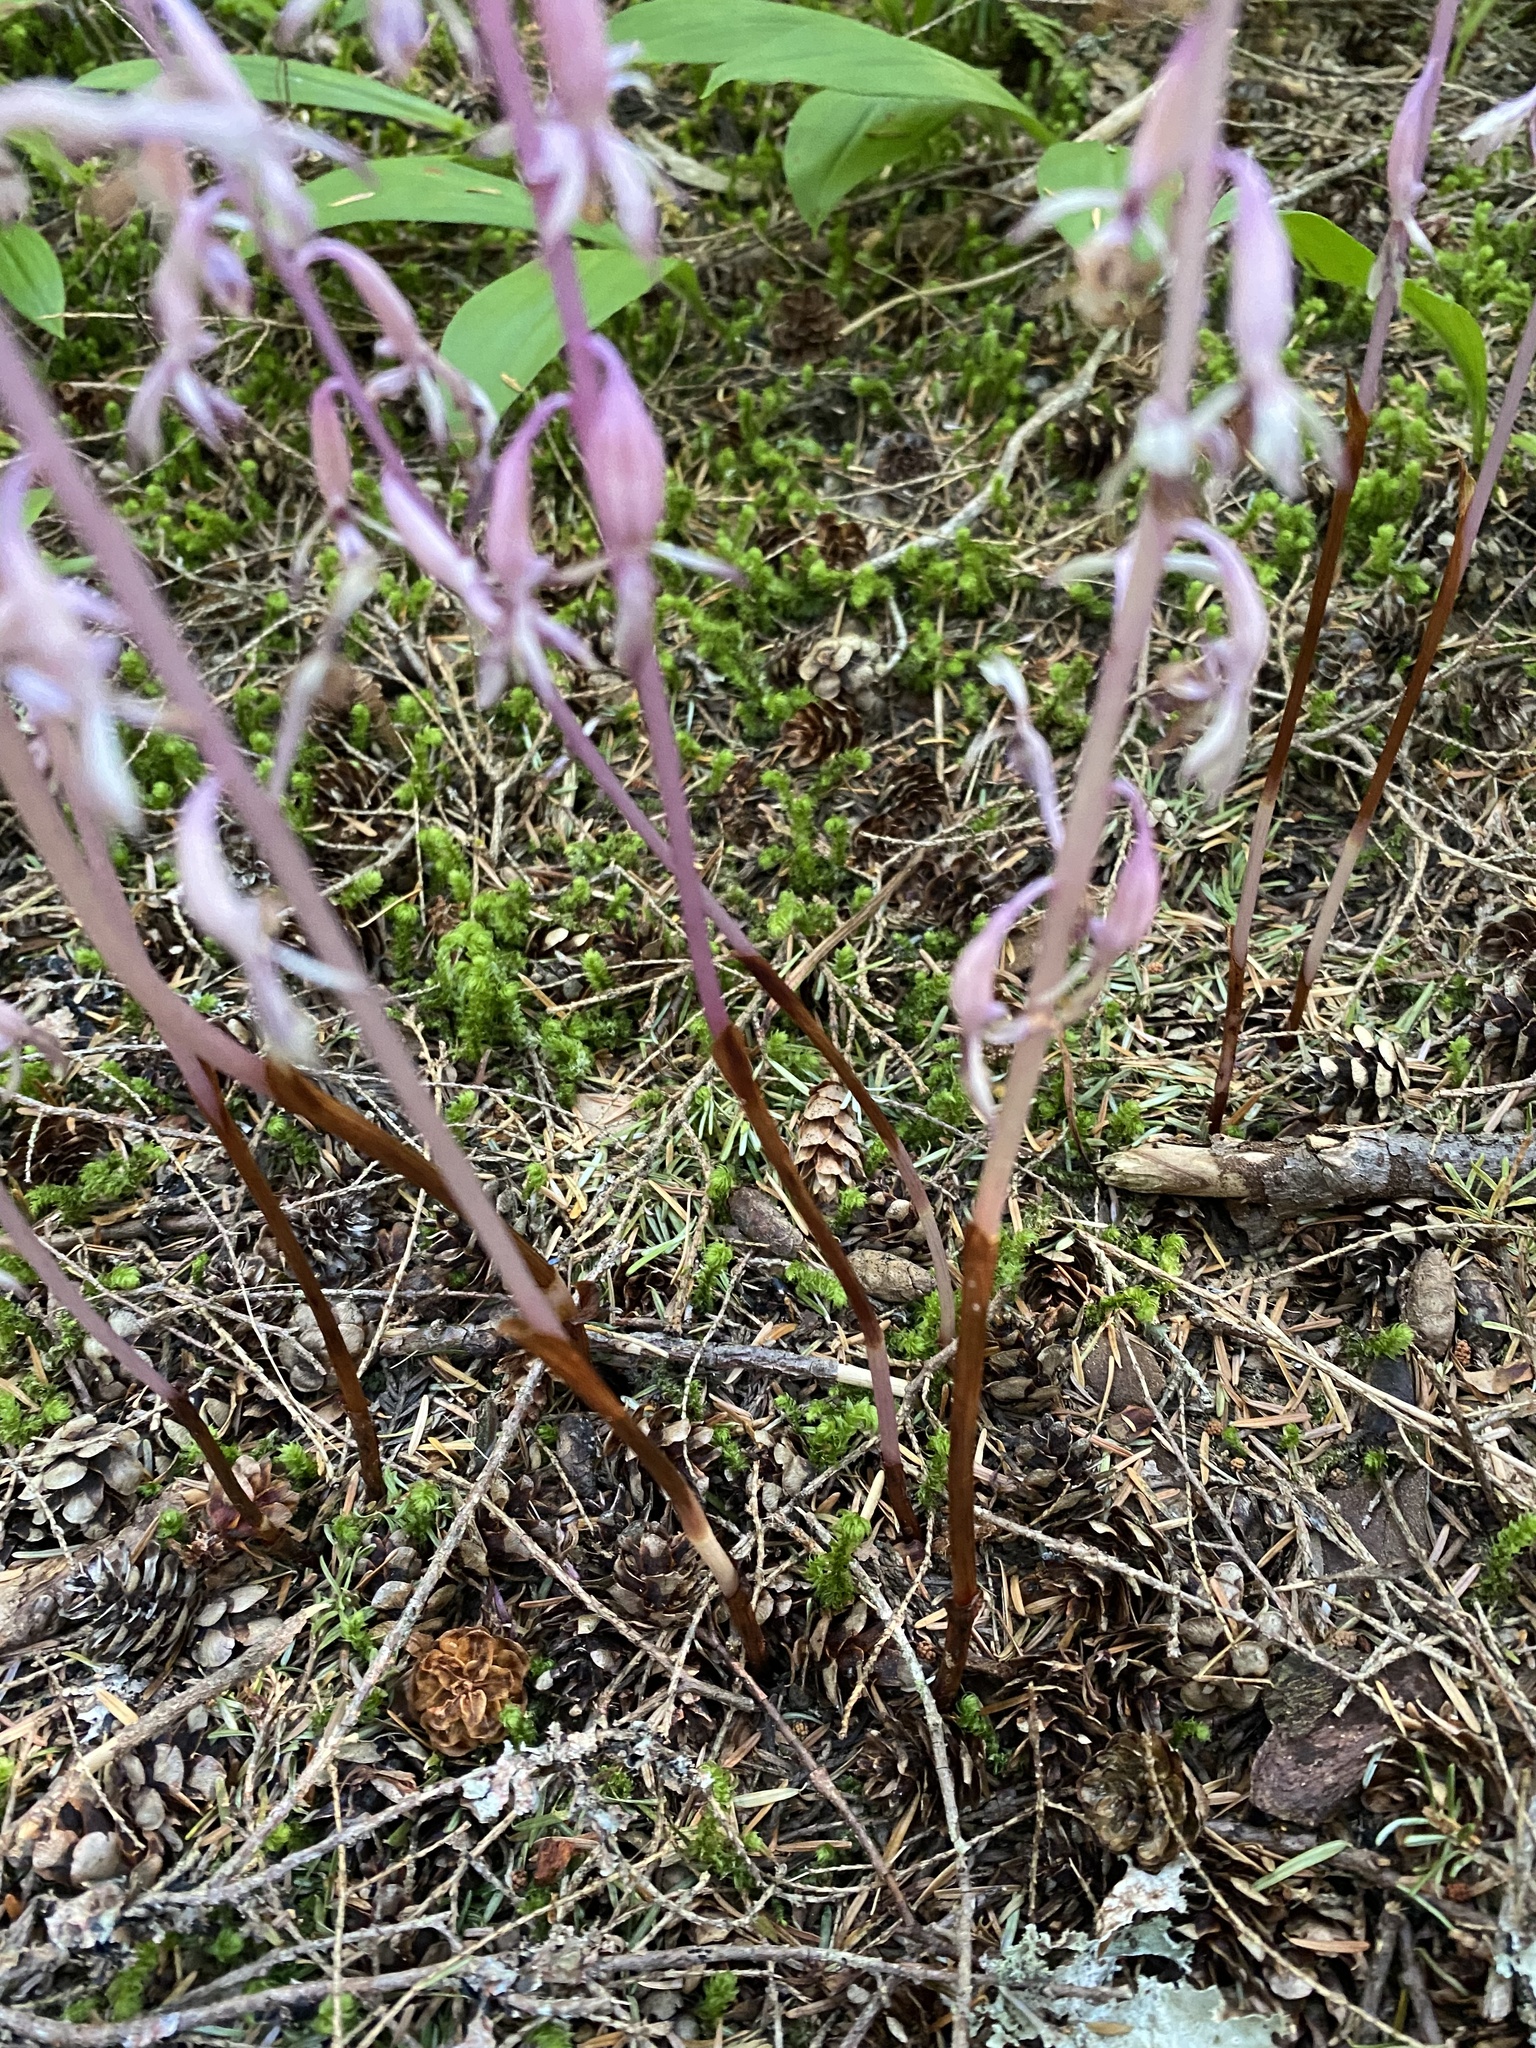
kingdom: Plantae
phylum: Tracheophyta
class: Liliopsida
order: Asparagales
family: Orchidaceae
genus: Corallorhiza
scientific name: Corallorhiza mertensiana
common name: Pacific coralroot
